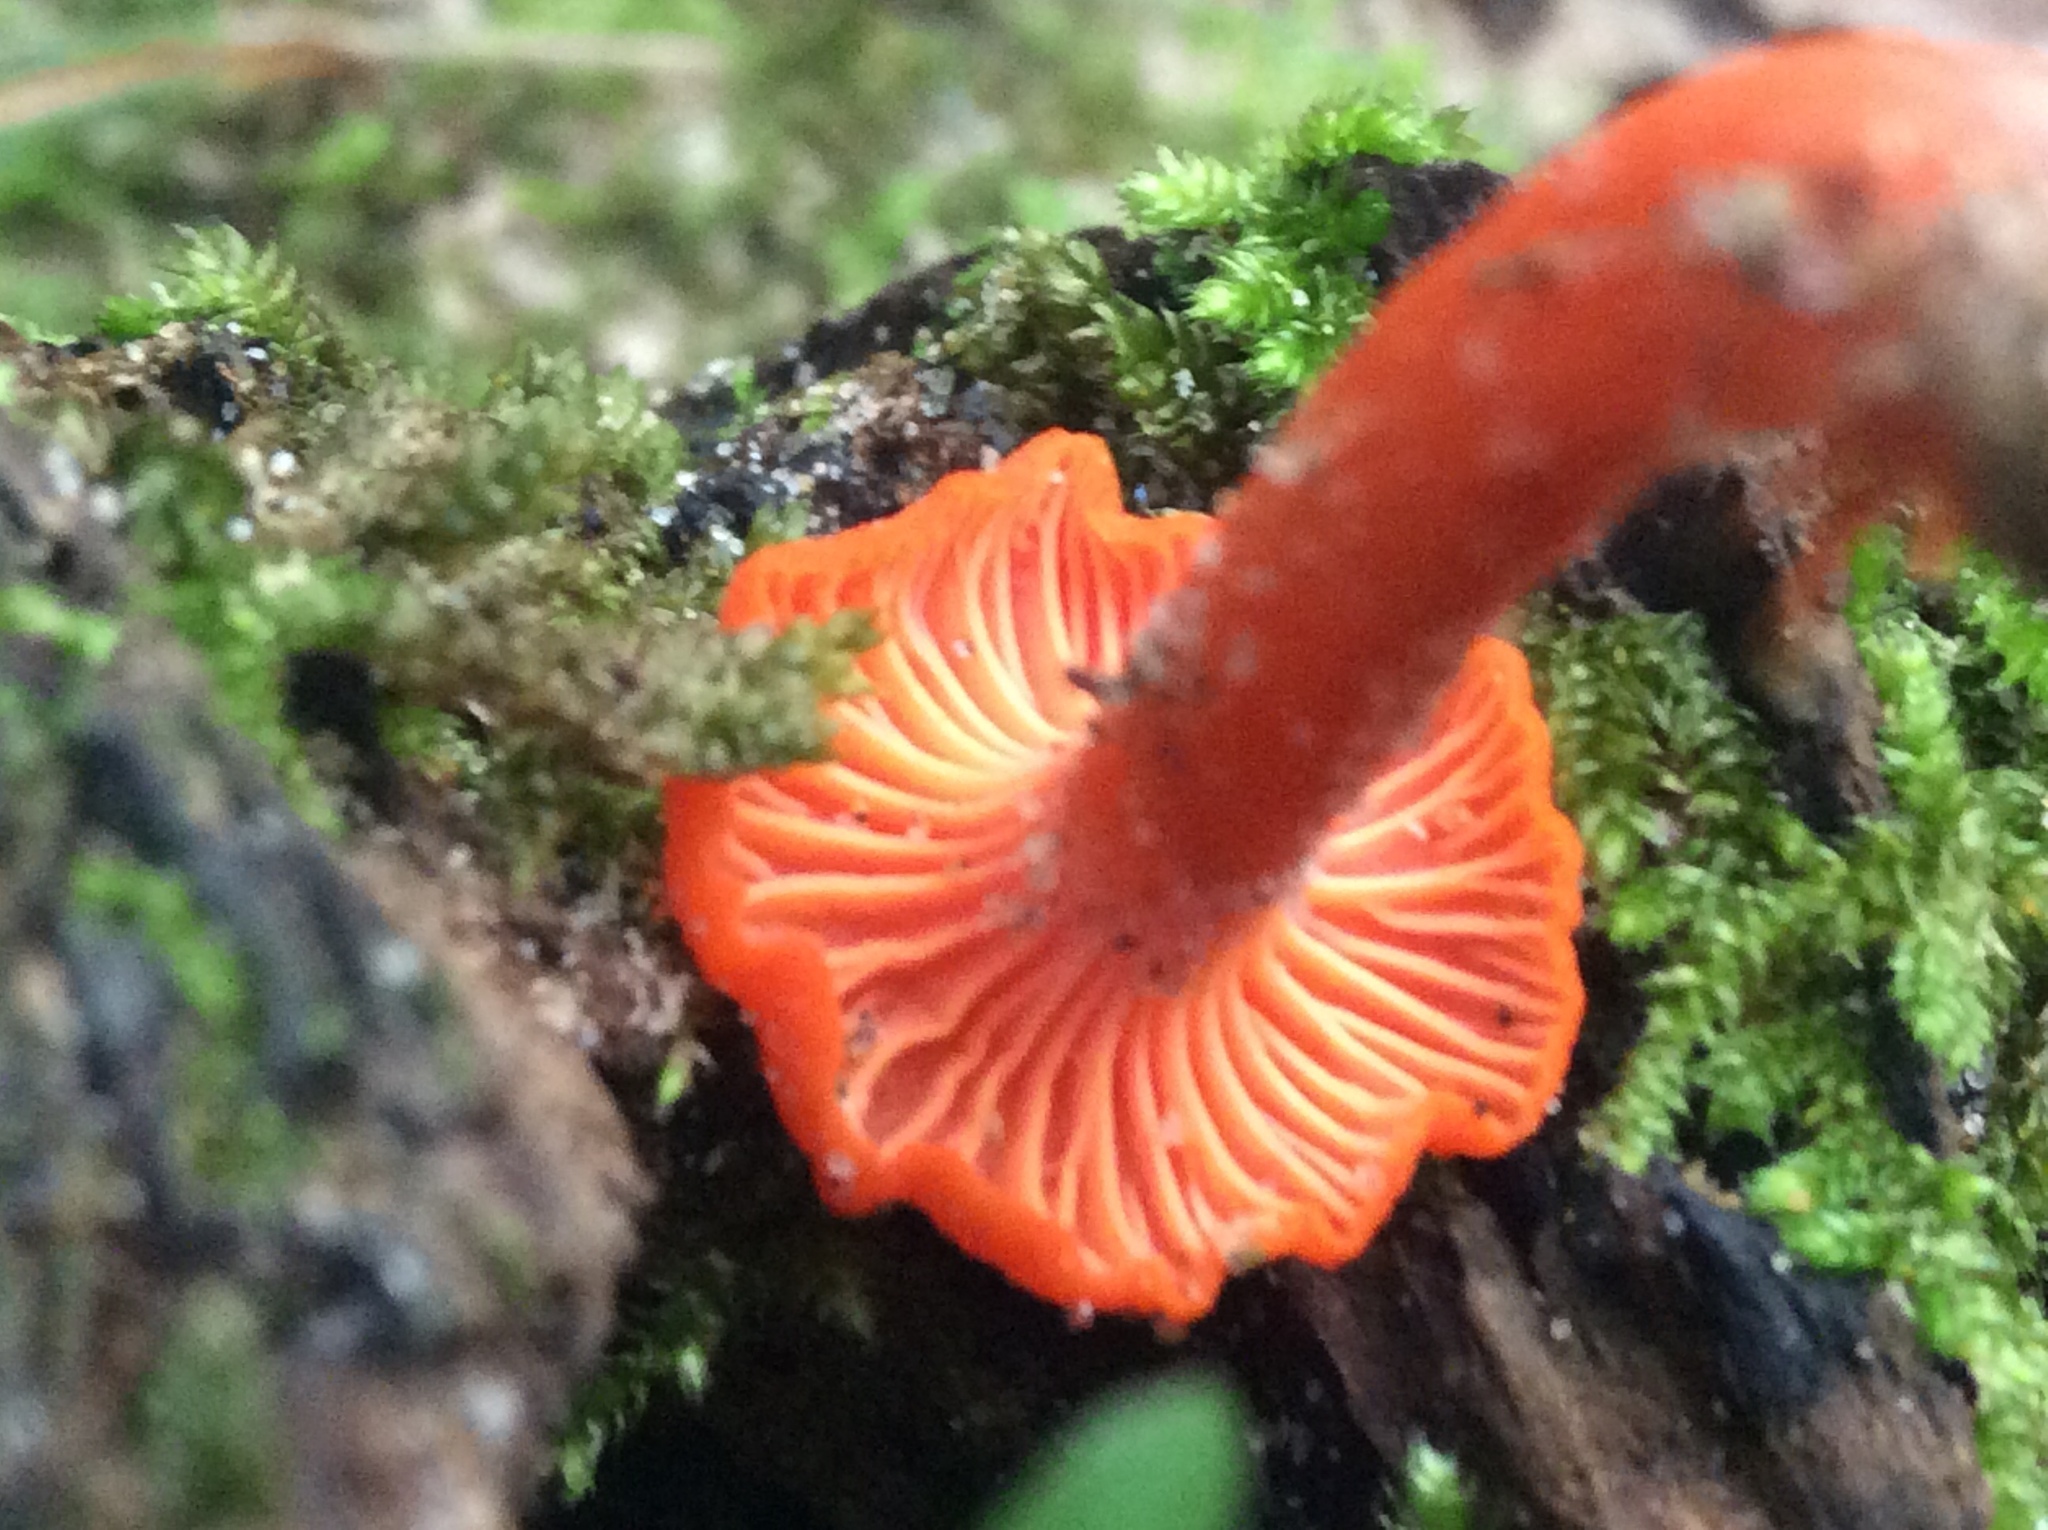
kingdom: Fungi
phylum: Basidiomycota
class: Agaricomycetes
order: Cantharellales
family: Hydnaceae
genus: Cantharellus
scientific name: Cantharellus cinnabarinus
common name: Cinnabar chanterelle
